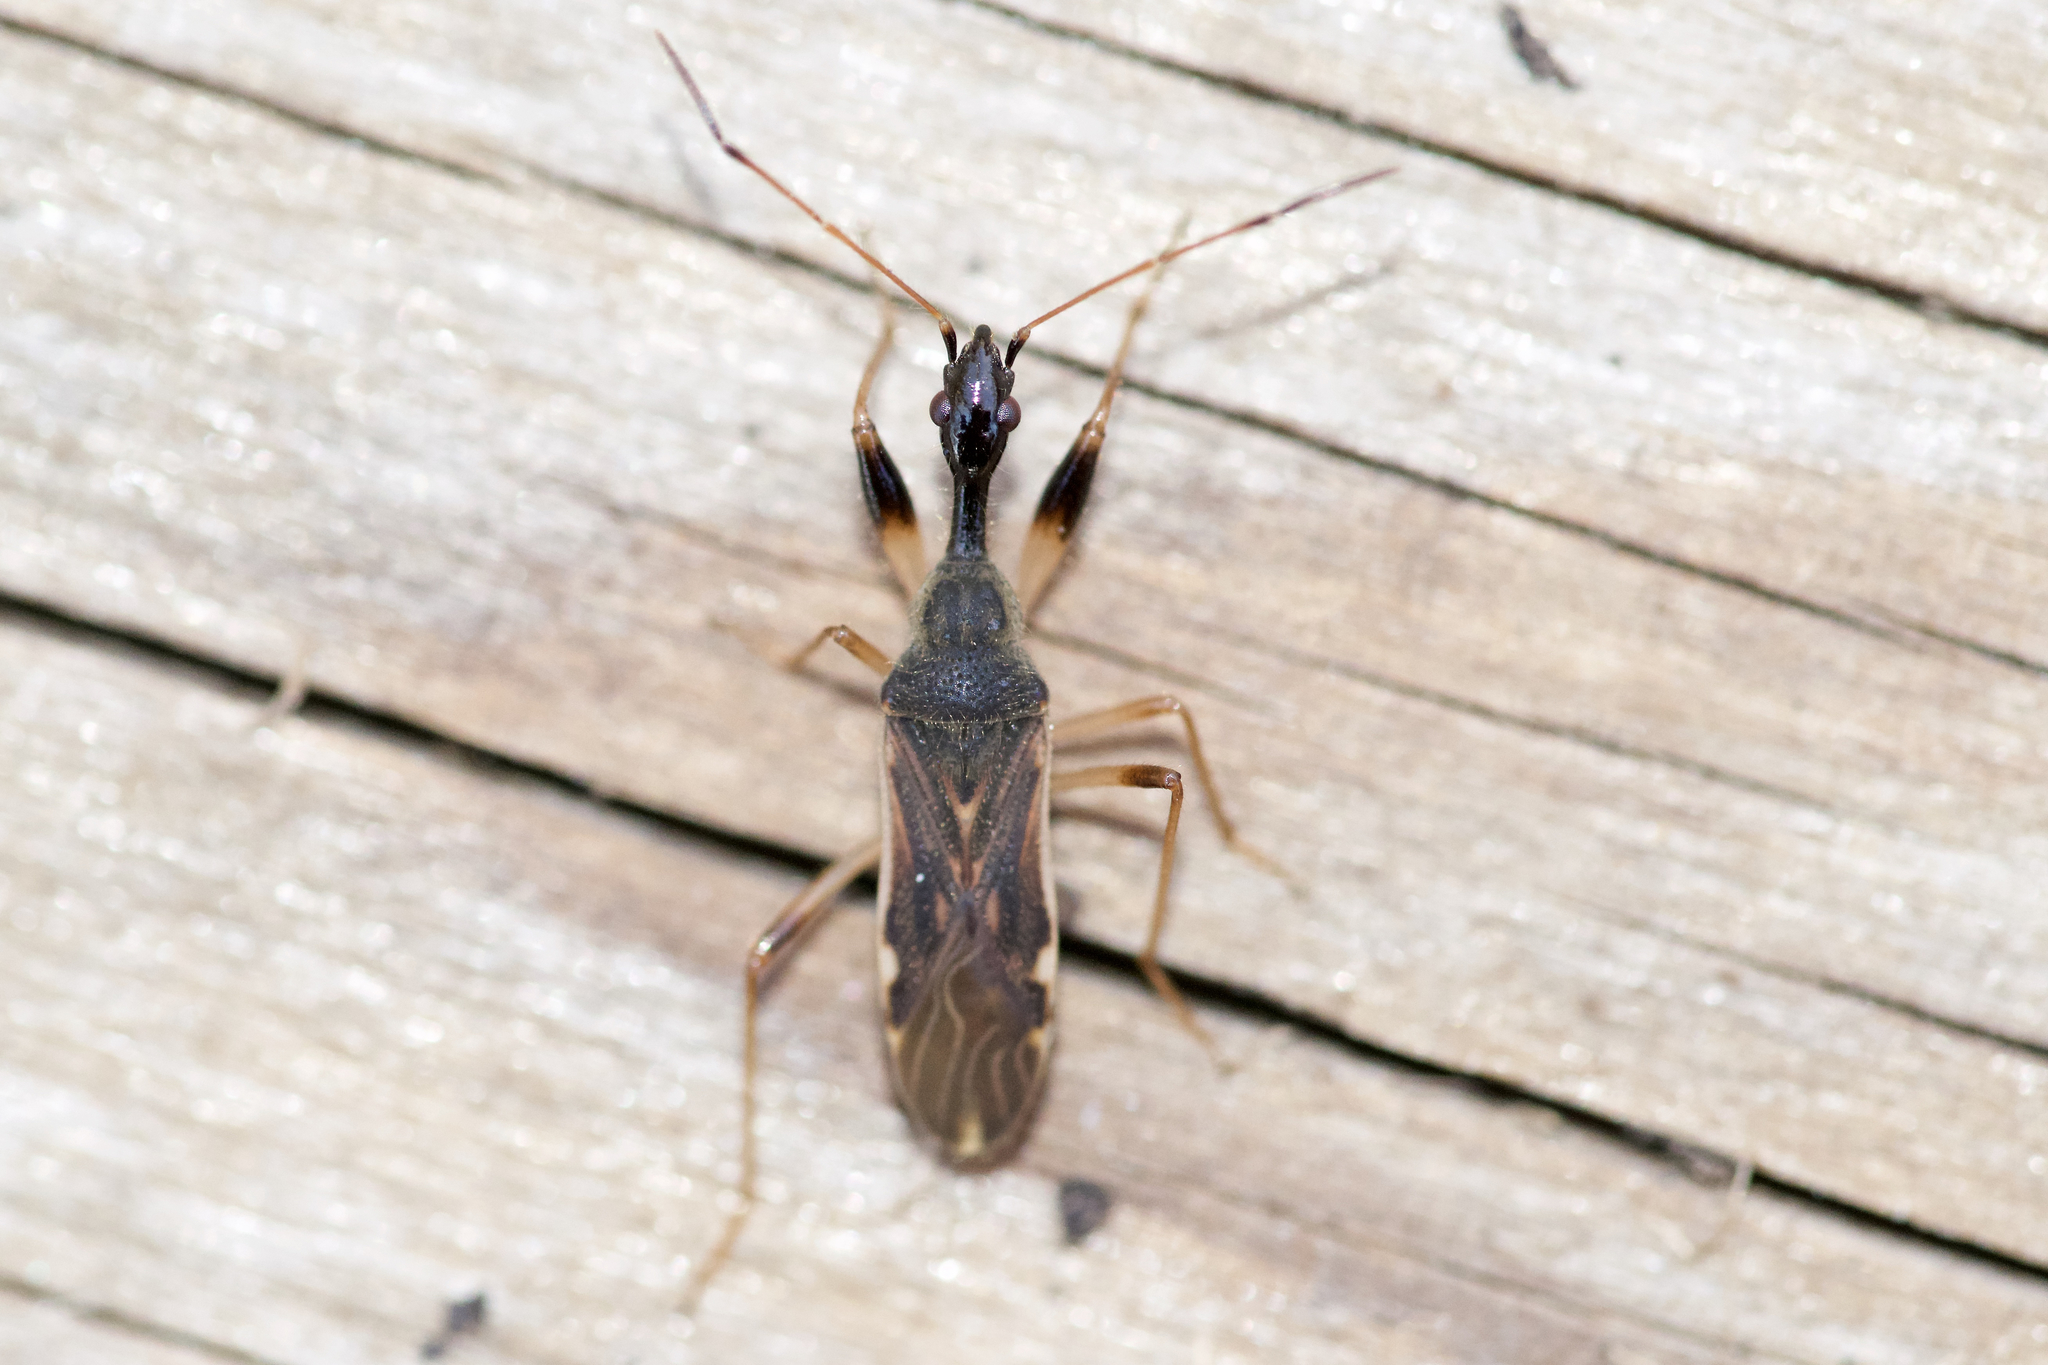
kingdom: Animalia
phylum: Arthropoda
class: Insecta
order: Hemiptera
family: Rhyparochromidae
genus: Myodocha
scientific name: Myodocha serripes
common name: Long-necked seed bug
